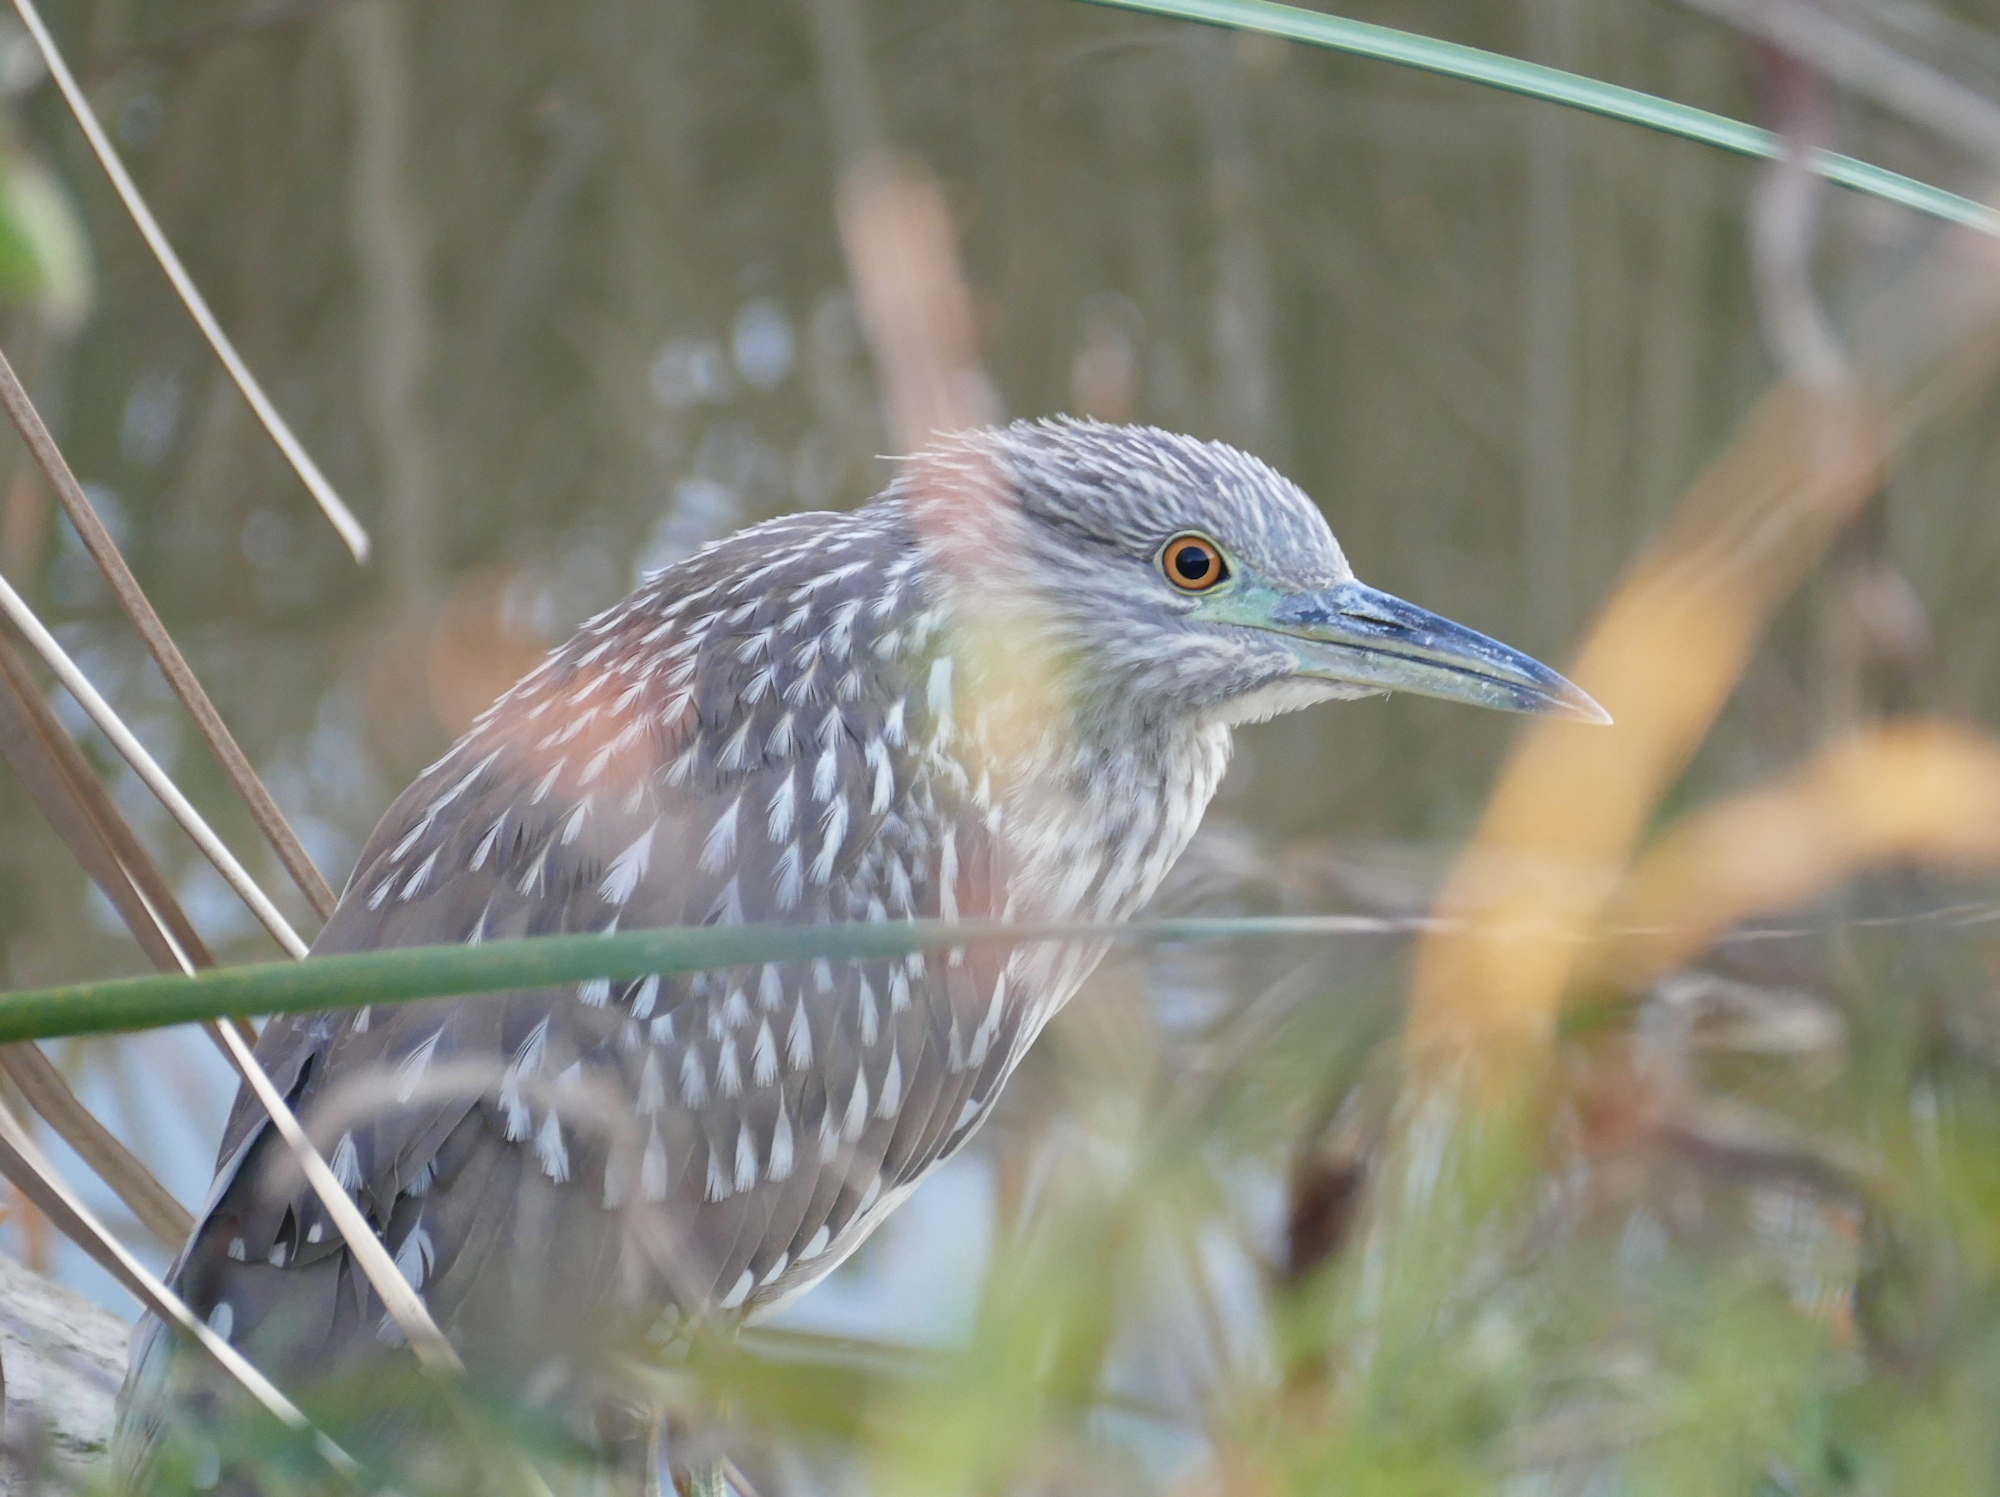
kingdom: Animalia
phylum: Chordata
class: Aves
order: Pelecaniformes
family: Ardeidae
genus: Nycticorax
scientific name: Nycticorax nycticorax
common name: Black-crowned night heron
